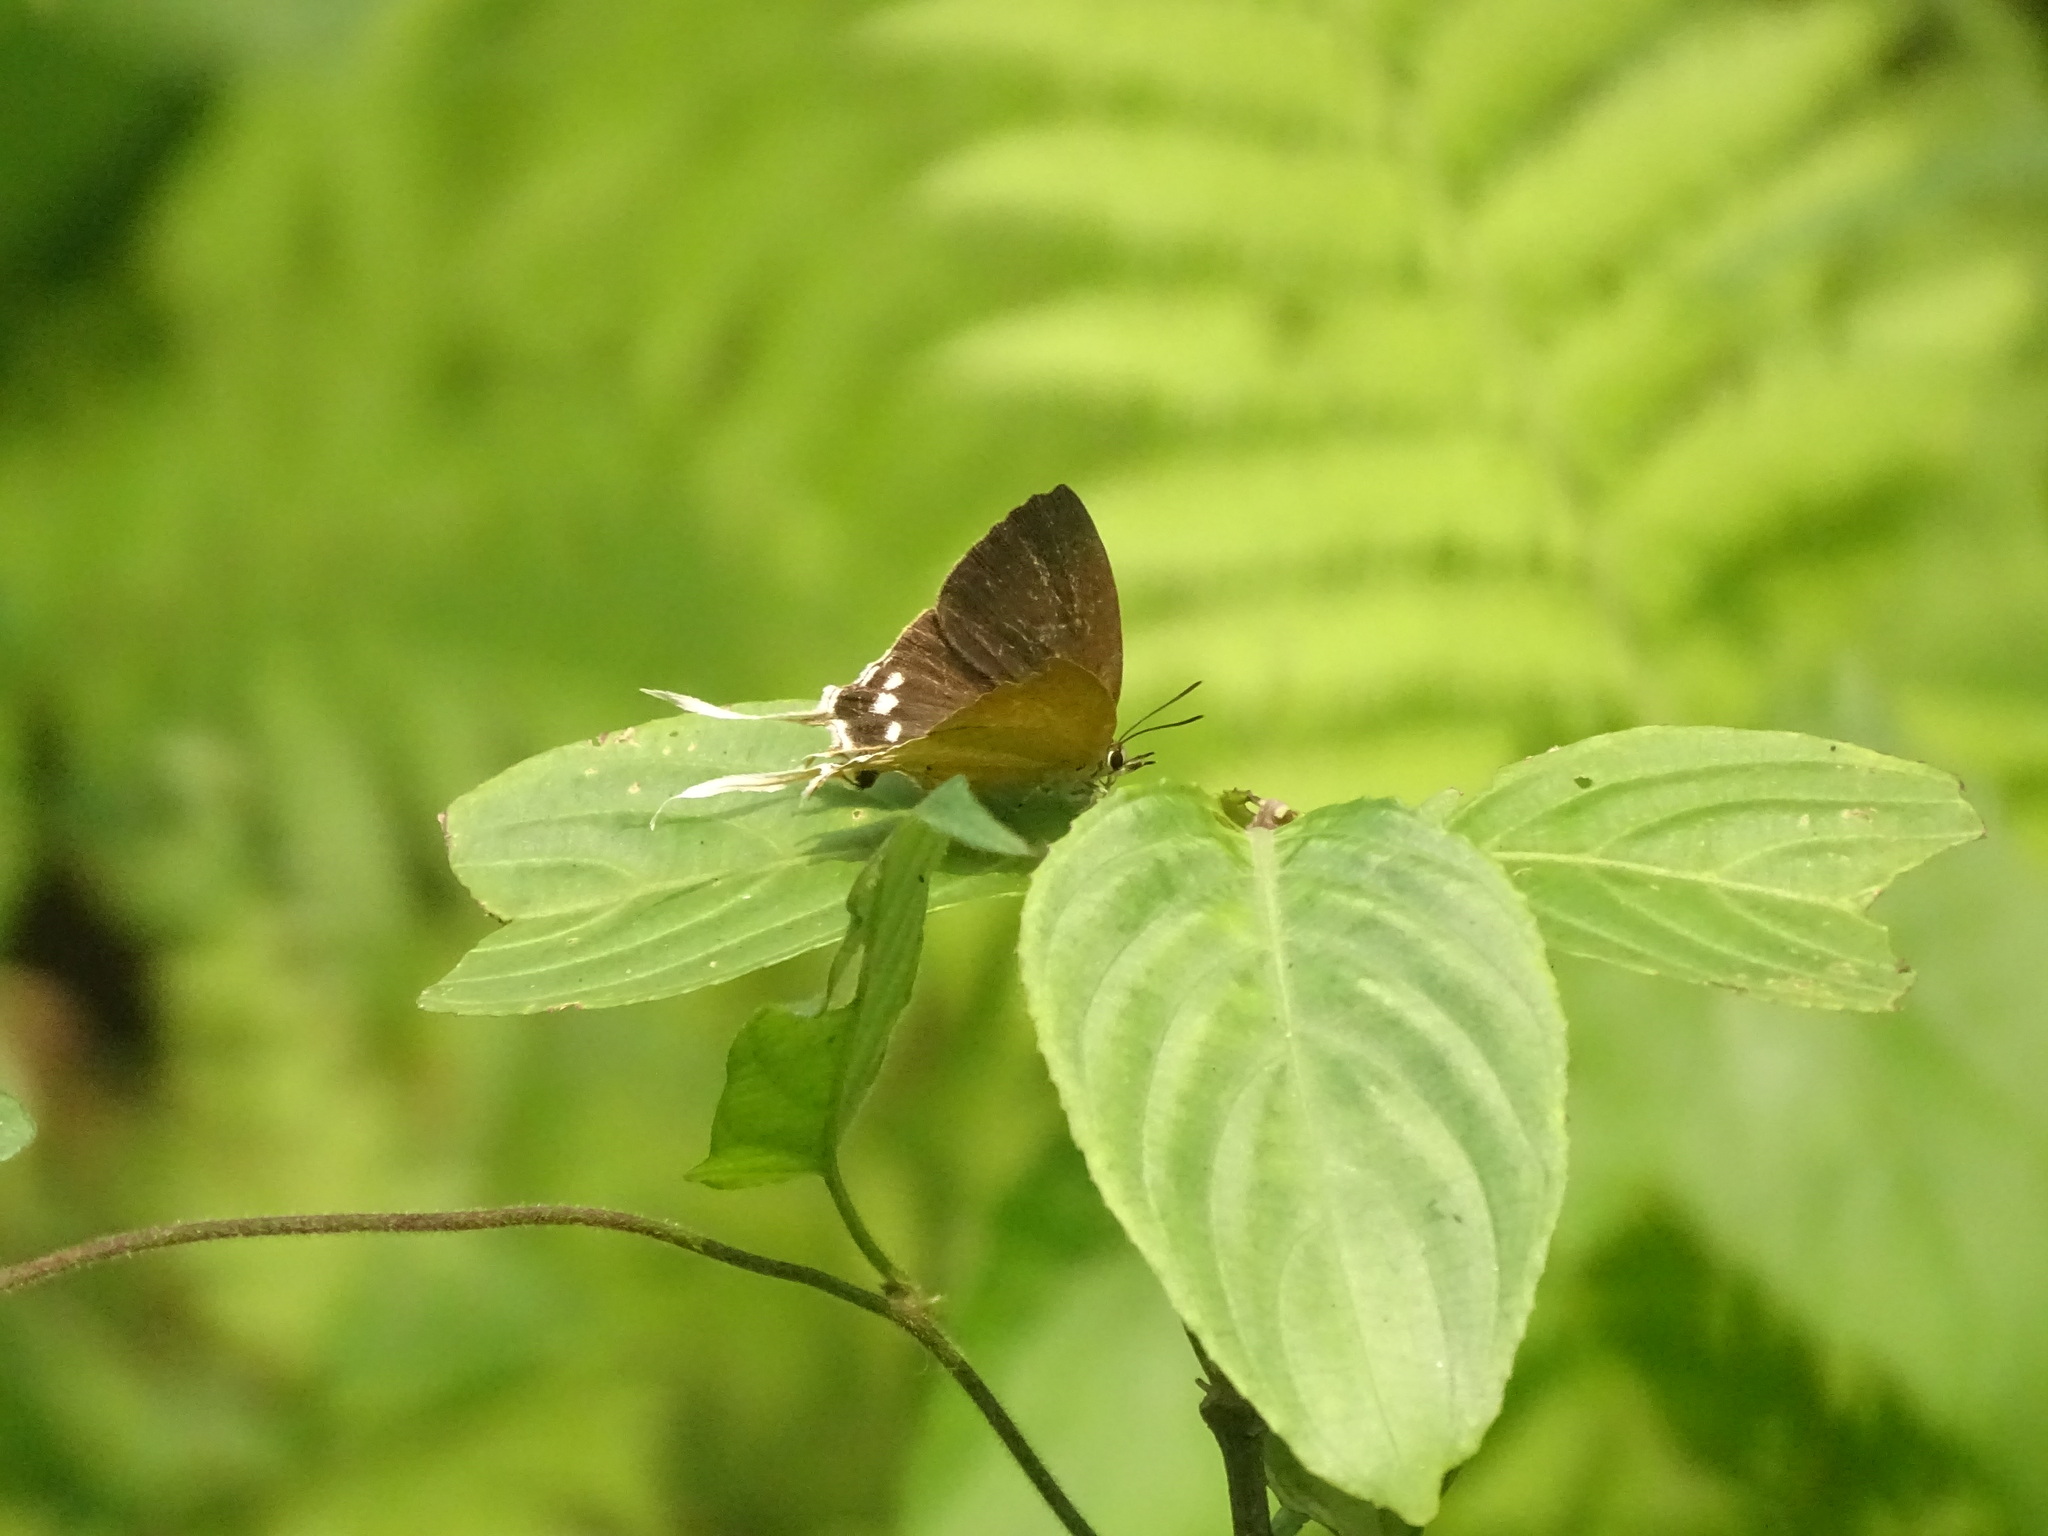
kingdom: Animalia
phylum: Arthropoda
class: Insecta
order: Lepidoptera
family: Lycaenidae
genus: Ticherra
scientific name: Ticherra acte
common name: Blue imperial
